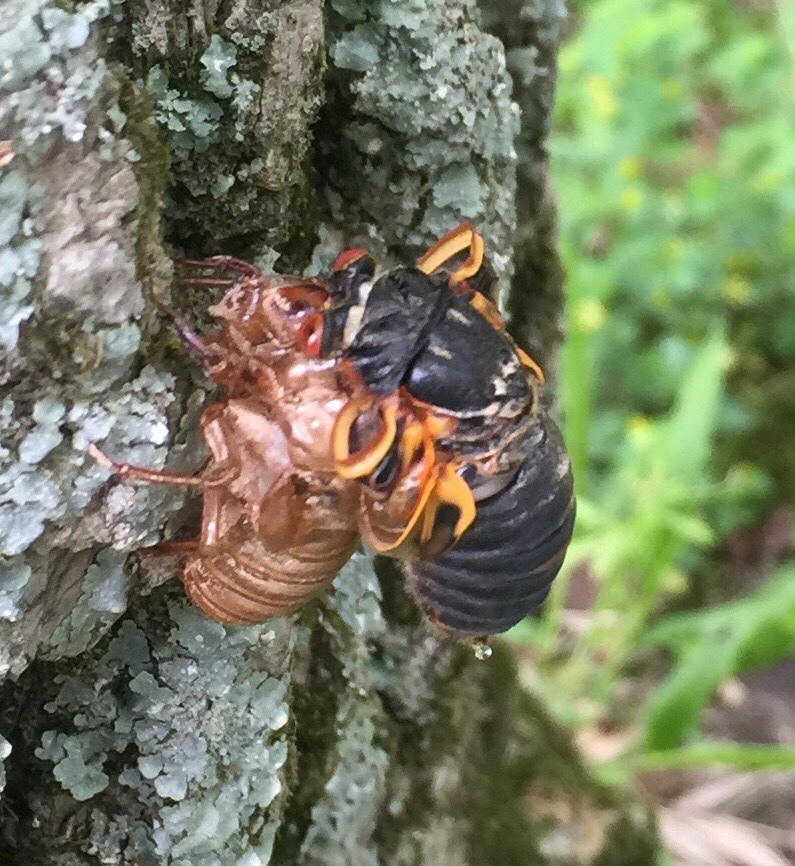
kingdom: Animalia
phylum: Arthropoda
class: Insecta
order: Hemiptera
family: Cicadidae
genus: Magicicada
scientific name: Magicicada
